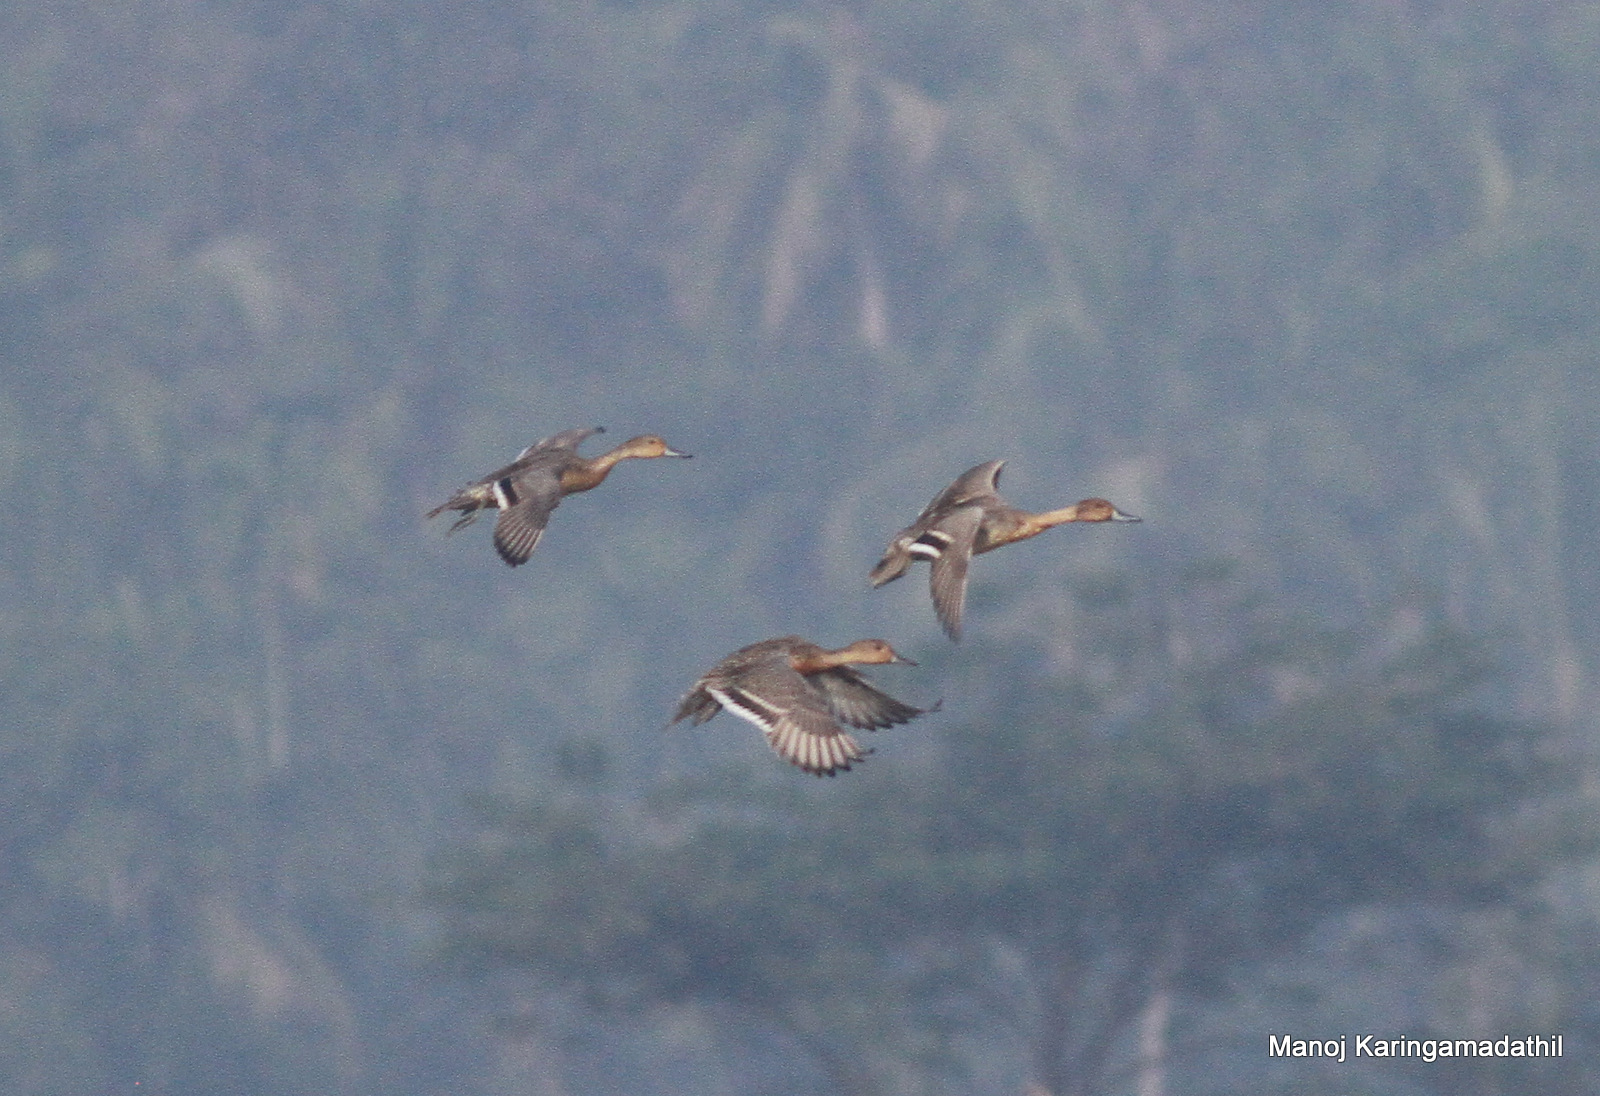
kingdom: Animalia
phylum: Chordata
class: Aves
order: Anseriformes
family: Anatidae
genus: Anas
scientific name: Anas acuta
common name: Northern pintail
